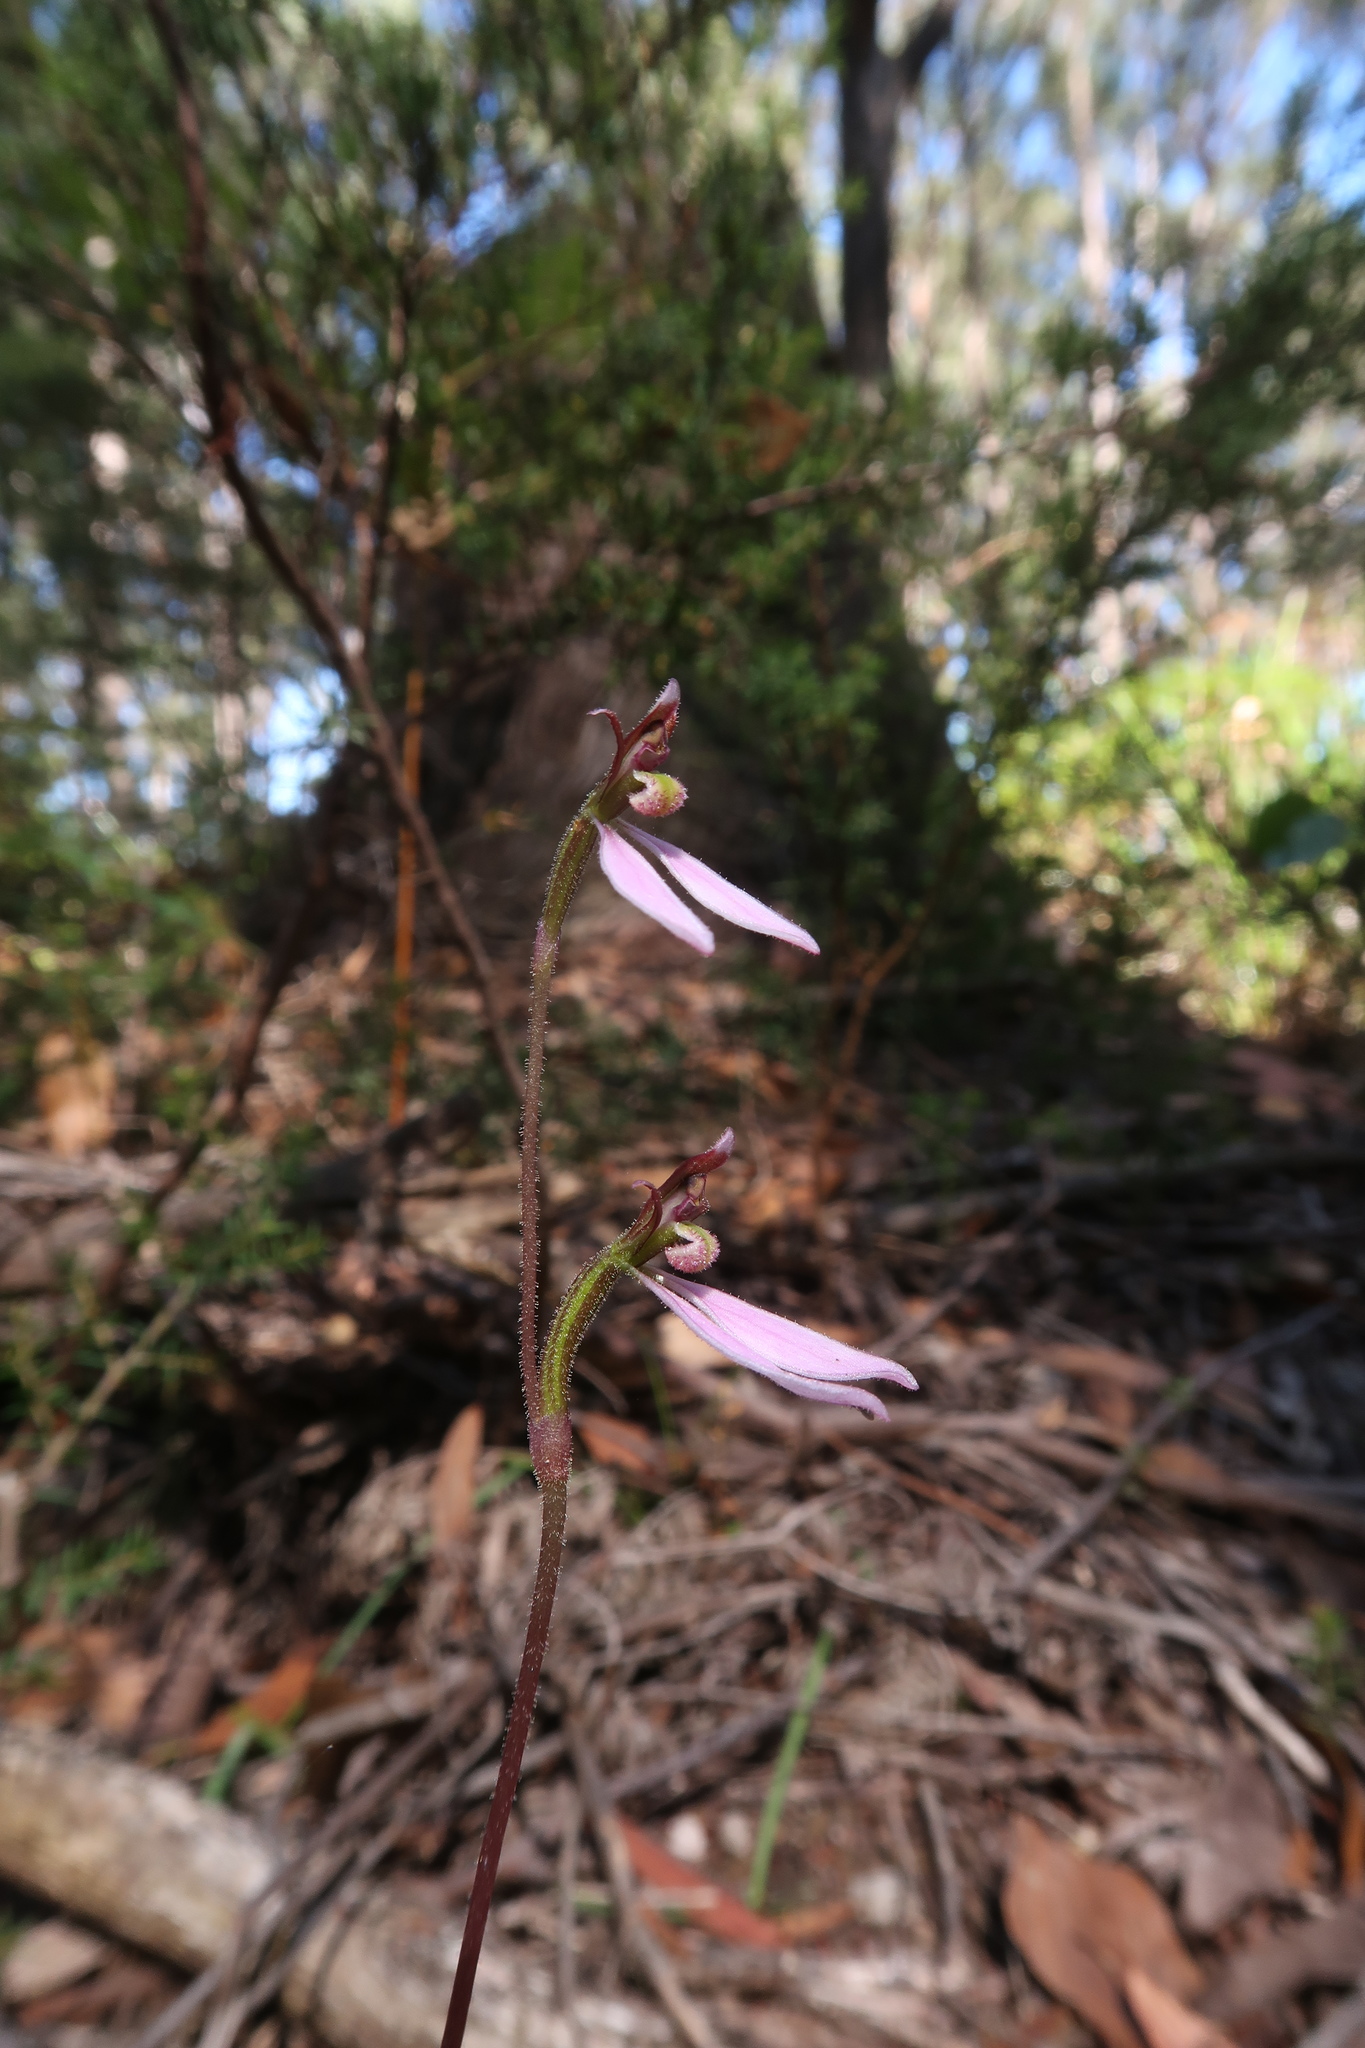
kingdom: Plantae
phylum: Tracheophyta
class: Liliopsida
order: Asparagales
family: Orchidaceae
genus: Eriochilus
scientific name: Eriochilus cucullatus
